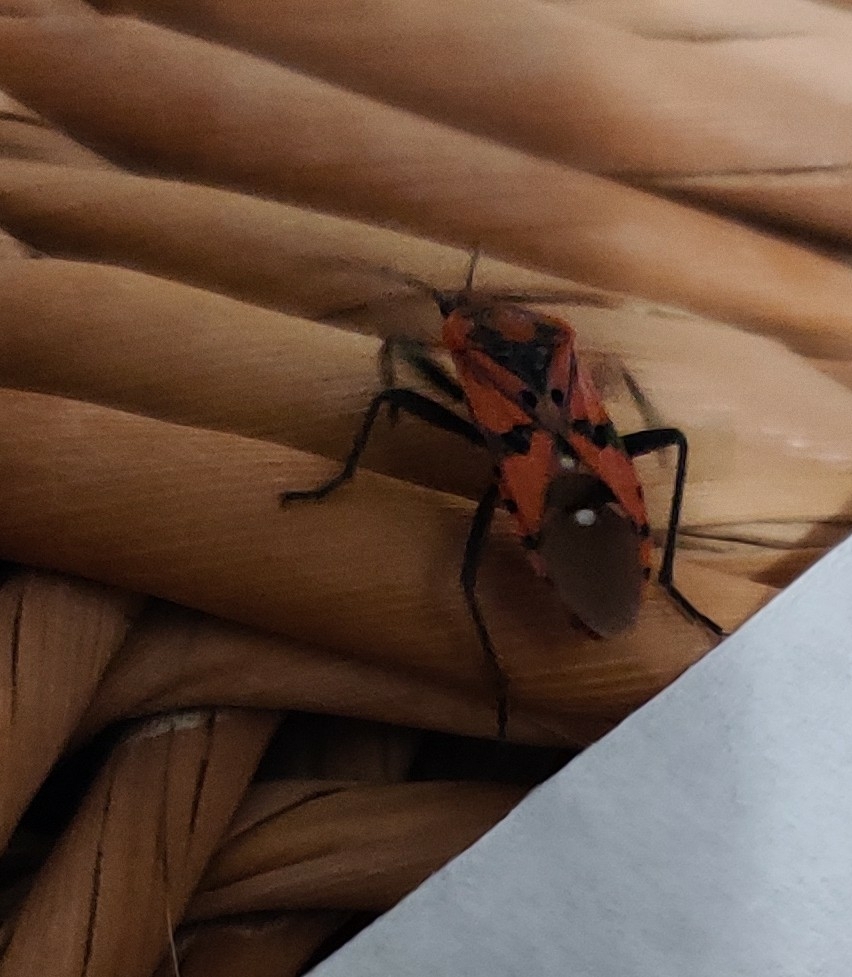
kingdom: Animalia
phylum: Arthropoda
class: Insecta
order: Hemiptera
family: Lygaeidae
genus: Spilostethus
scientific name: Spilostethus pandurus
